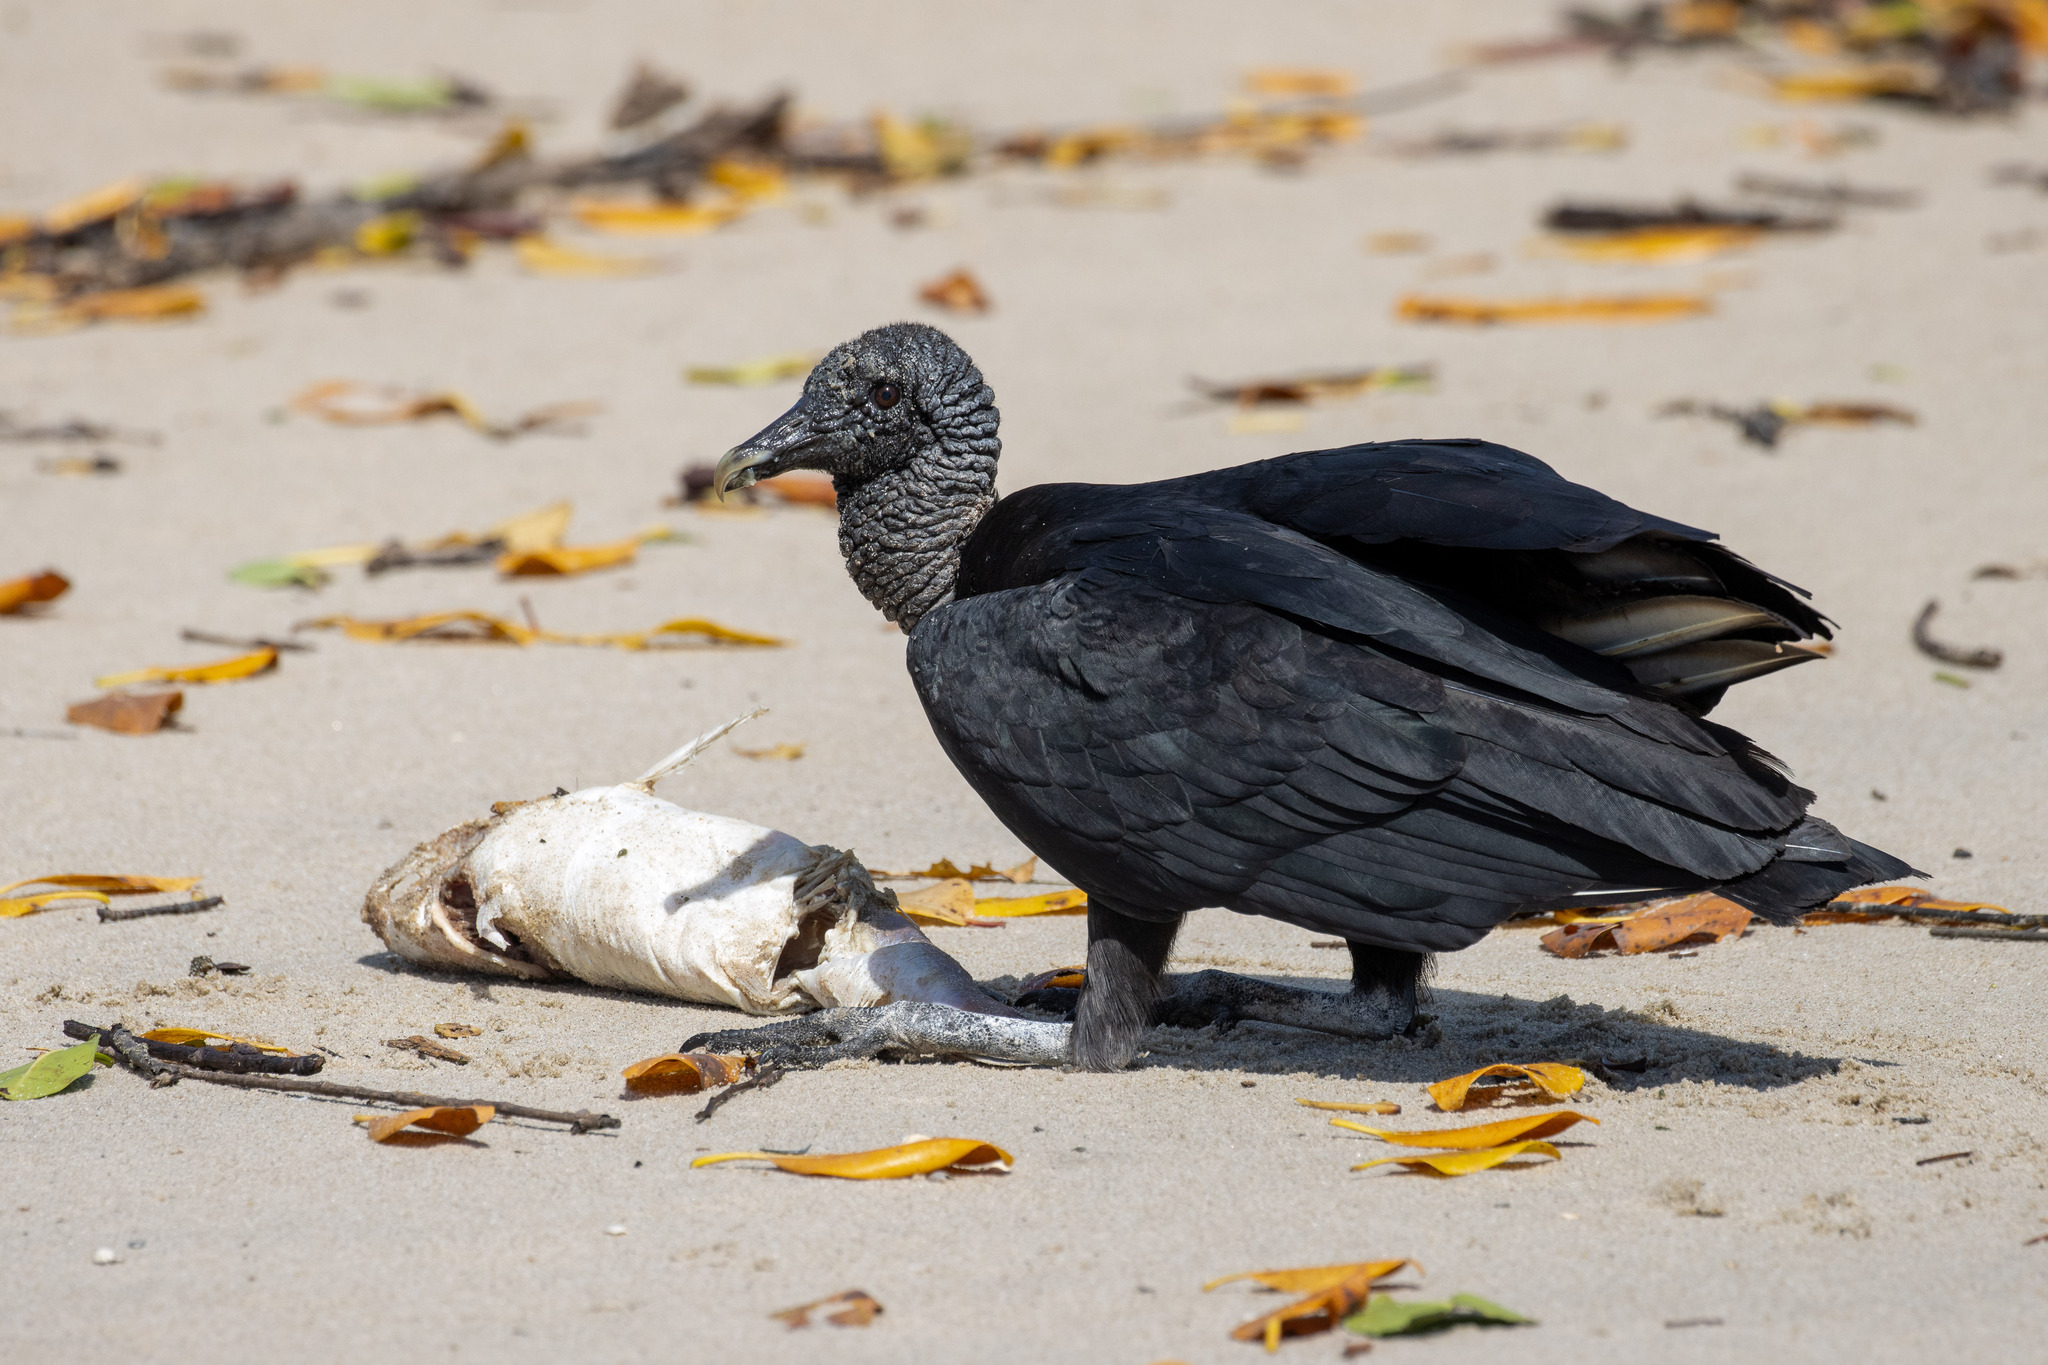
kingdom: Animalia
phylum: Chordata
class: Aves
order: Accipitriformes
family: Cathartidae
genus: Coragyps
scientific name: Coragyps atratus
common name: Black vulture
